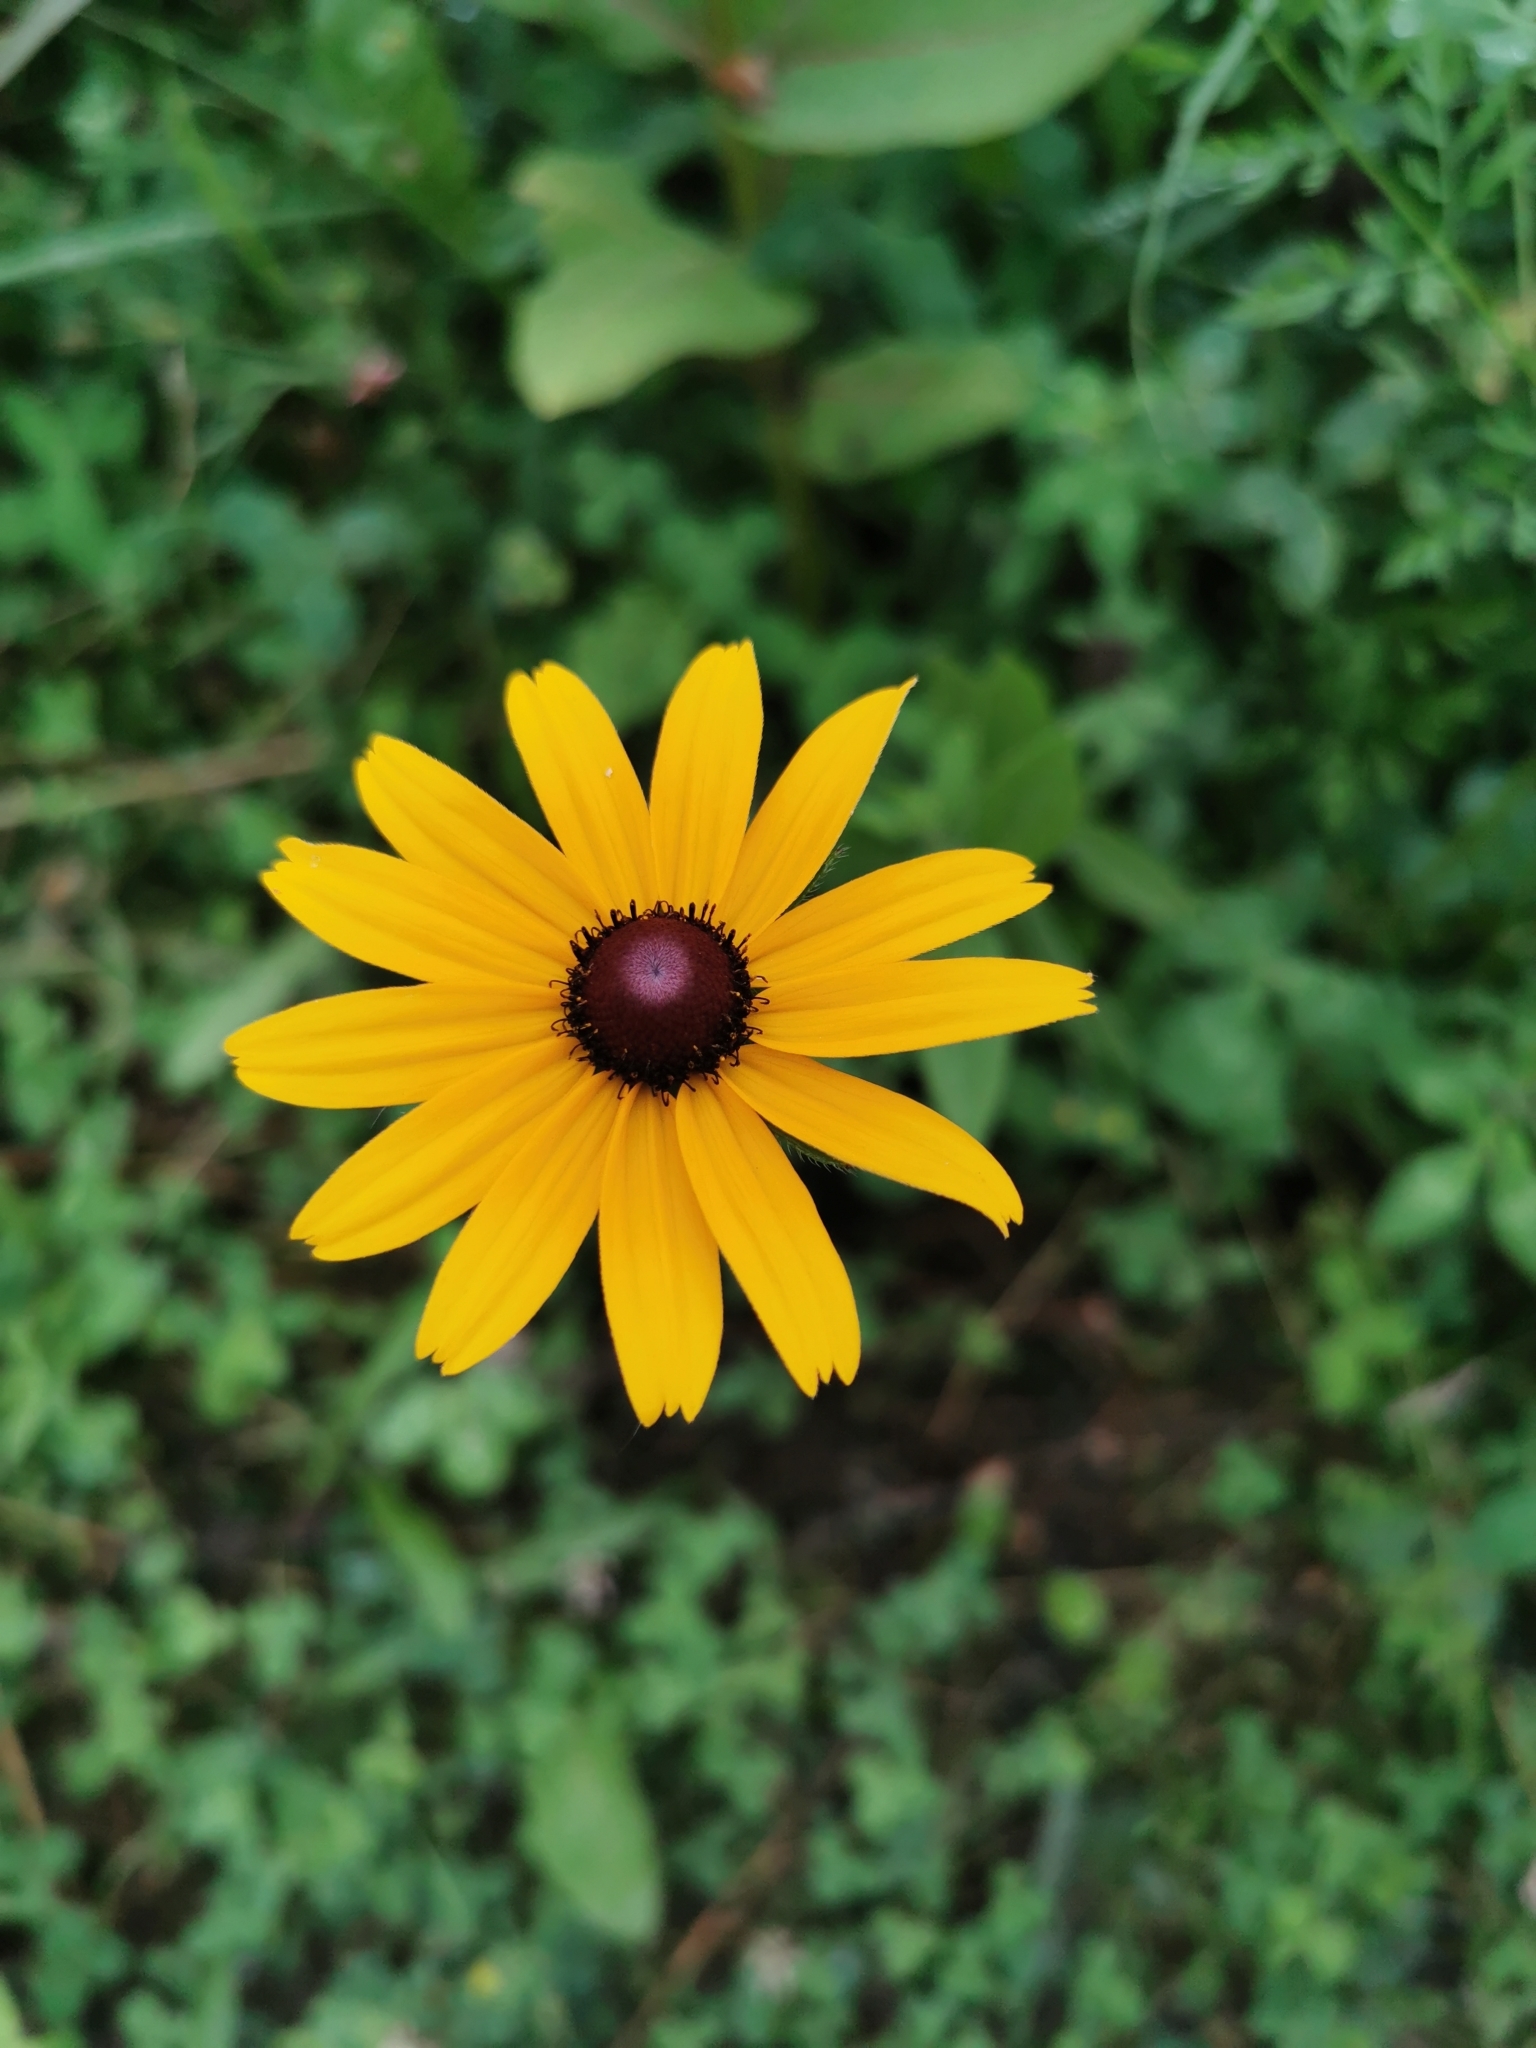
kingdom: Plantae
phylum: Tracheophyta
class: Magnoliopsida
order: Asterales
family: Asteraceae
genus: Rudbeckia
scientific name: Rudbeckia hirta
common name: Black-eyed-susan
